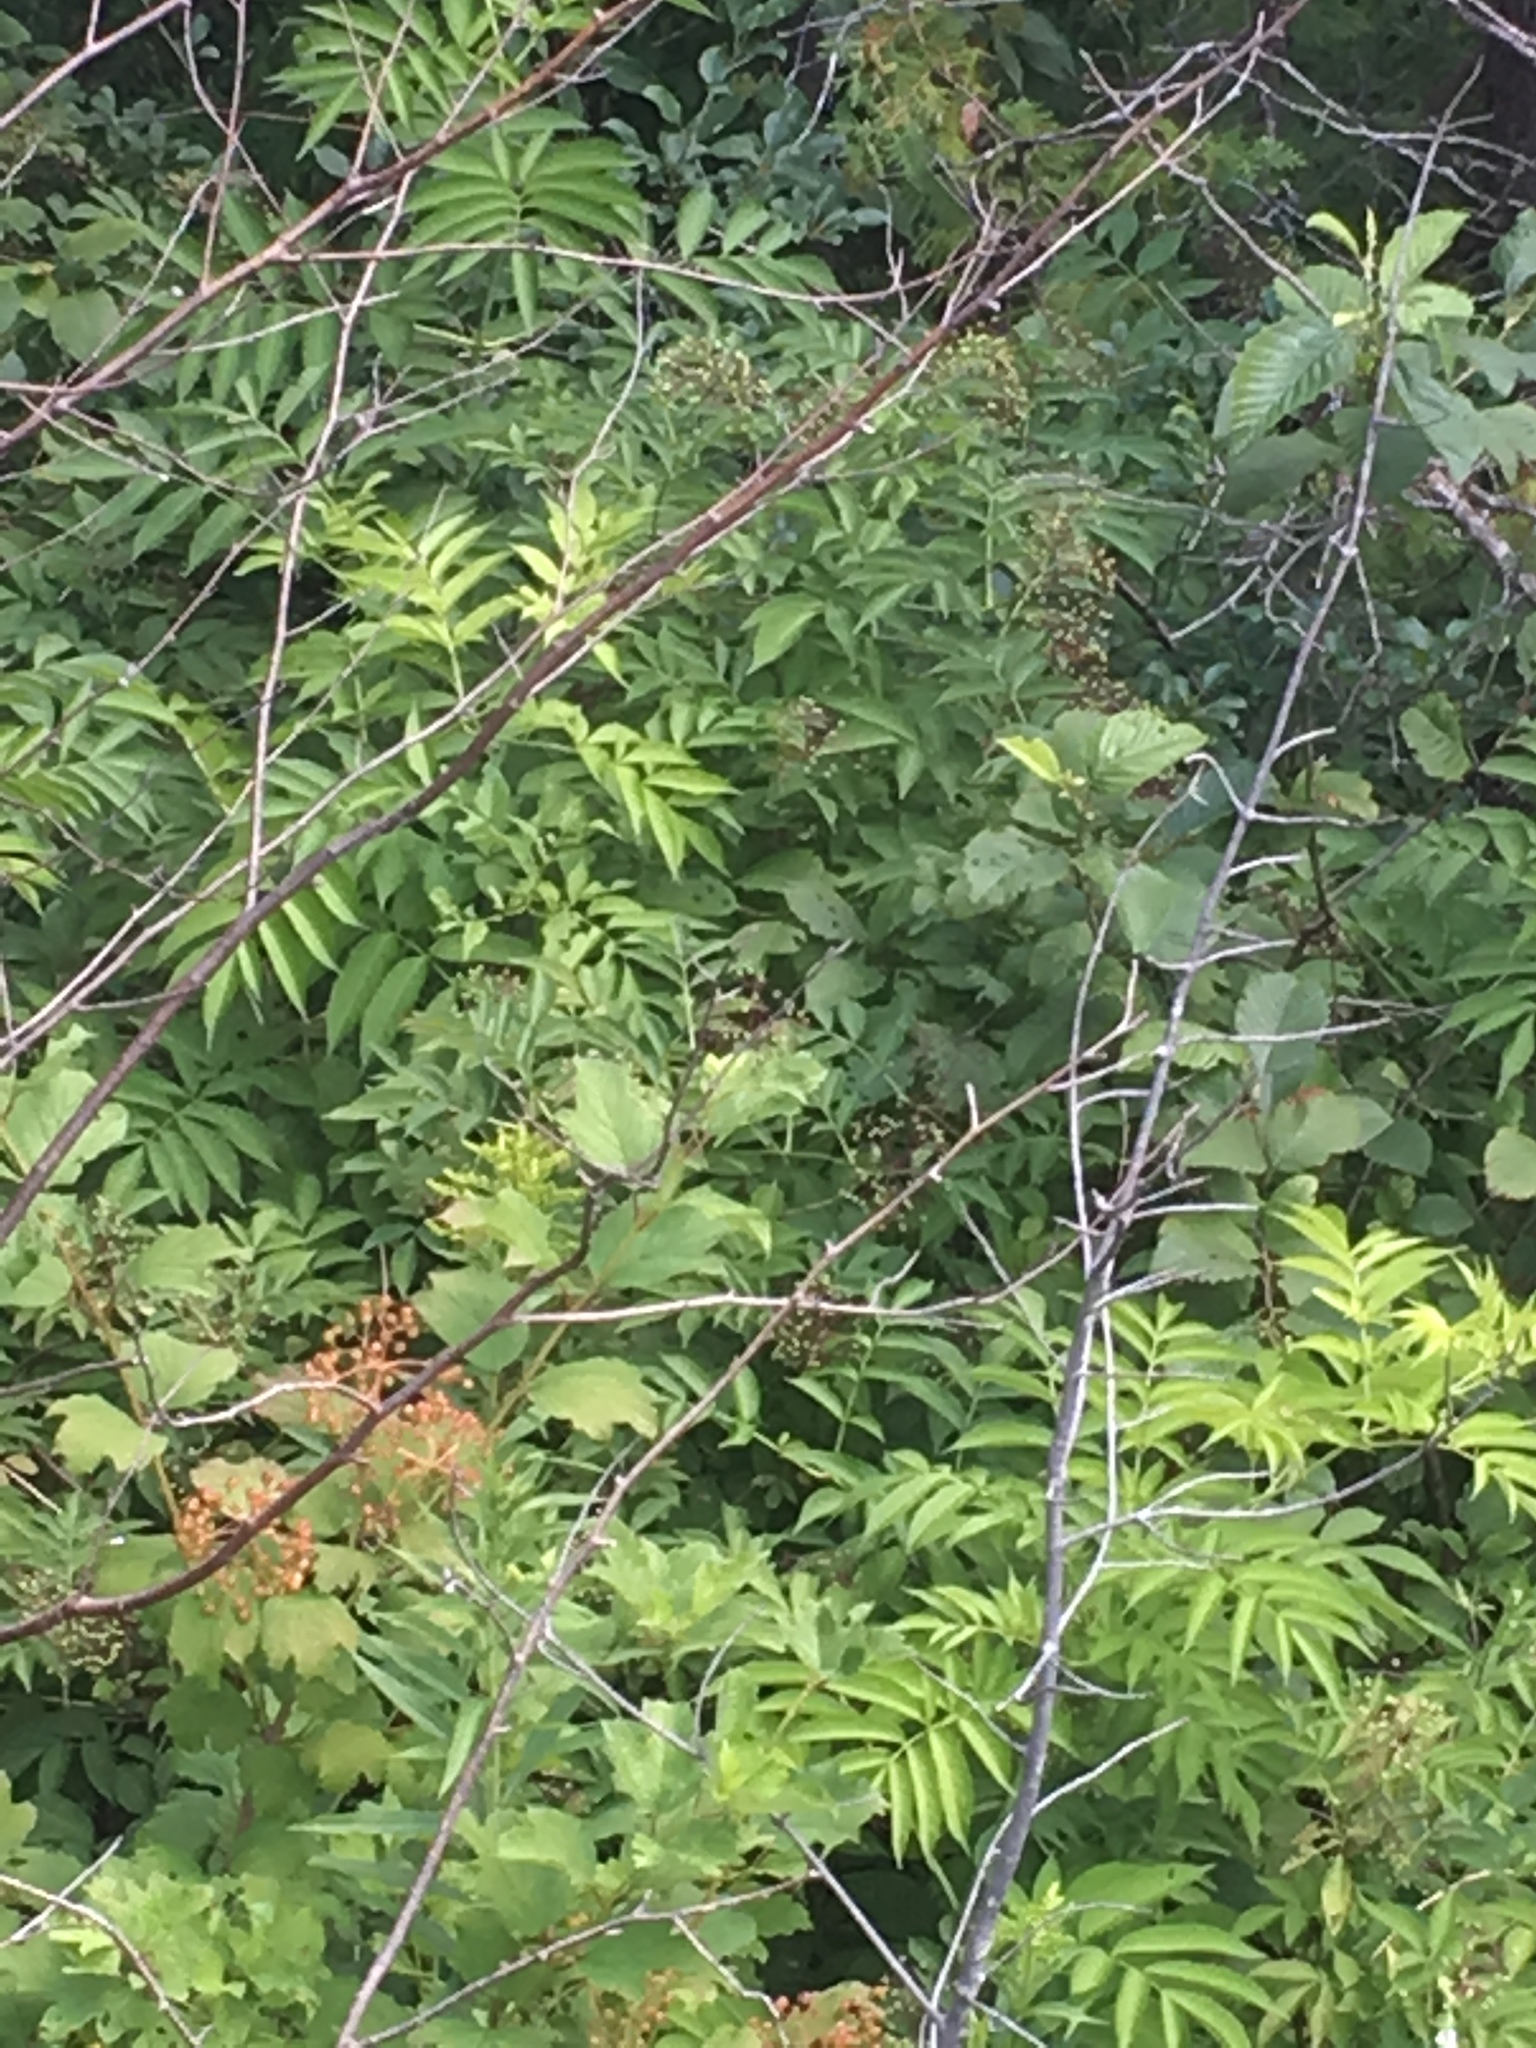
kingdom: Plantae
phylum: Tracheophyta
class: Magnoliopsida
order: Dipsacales
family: Viburnaceae
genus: Sambucus
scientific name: Sambucus racemosa
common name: Red-berried elder
